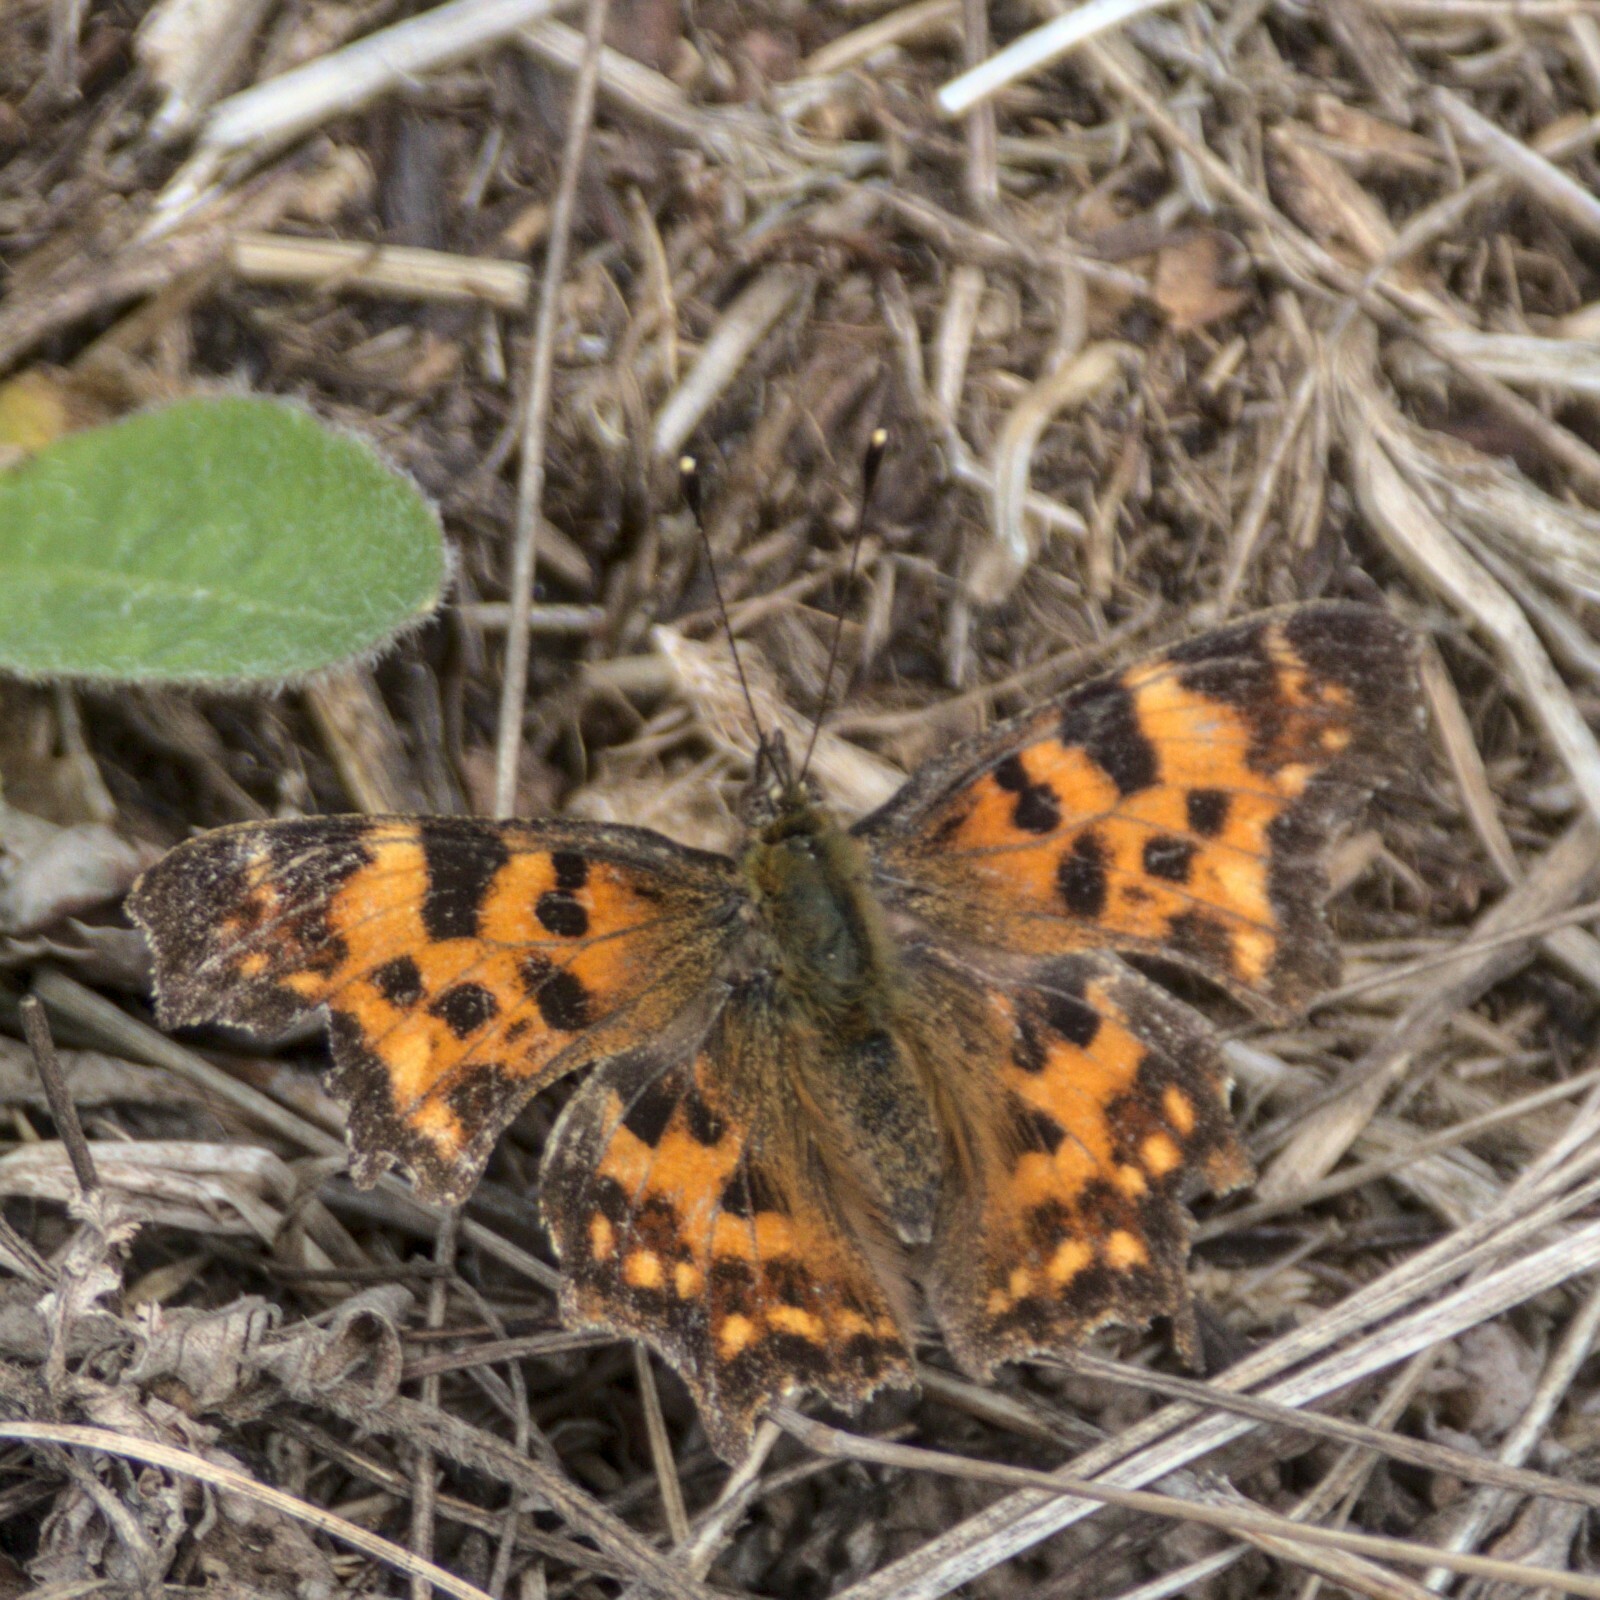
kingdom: Animalia
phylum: Arthropoda
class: Insecta
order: Lepidoptera
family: Nymphalidae
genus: Polygonia
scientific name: Polygonia c-album
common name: Comma
